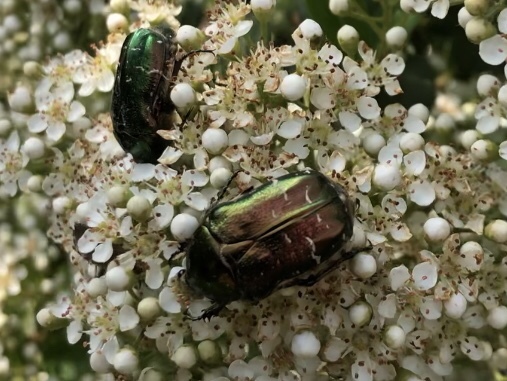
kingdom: Animalia
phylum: Arthropoda
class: Insecta
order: Coleoptera
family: Scarabaeidae
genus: Cetonia
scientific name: Cetonia aurata
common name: Rose chafer
